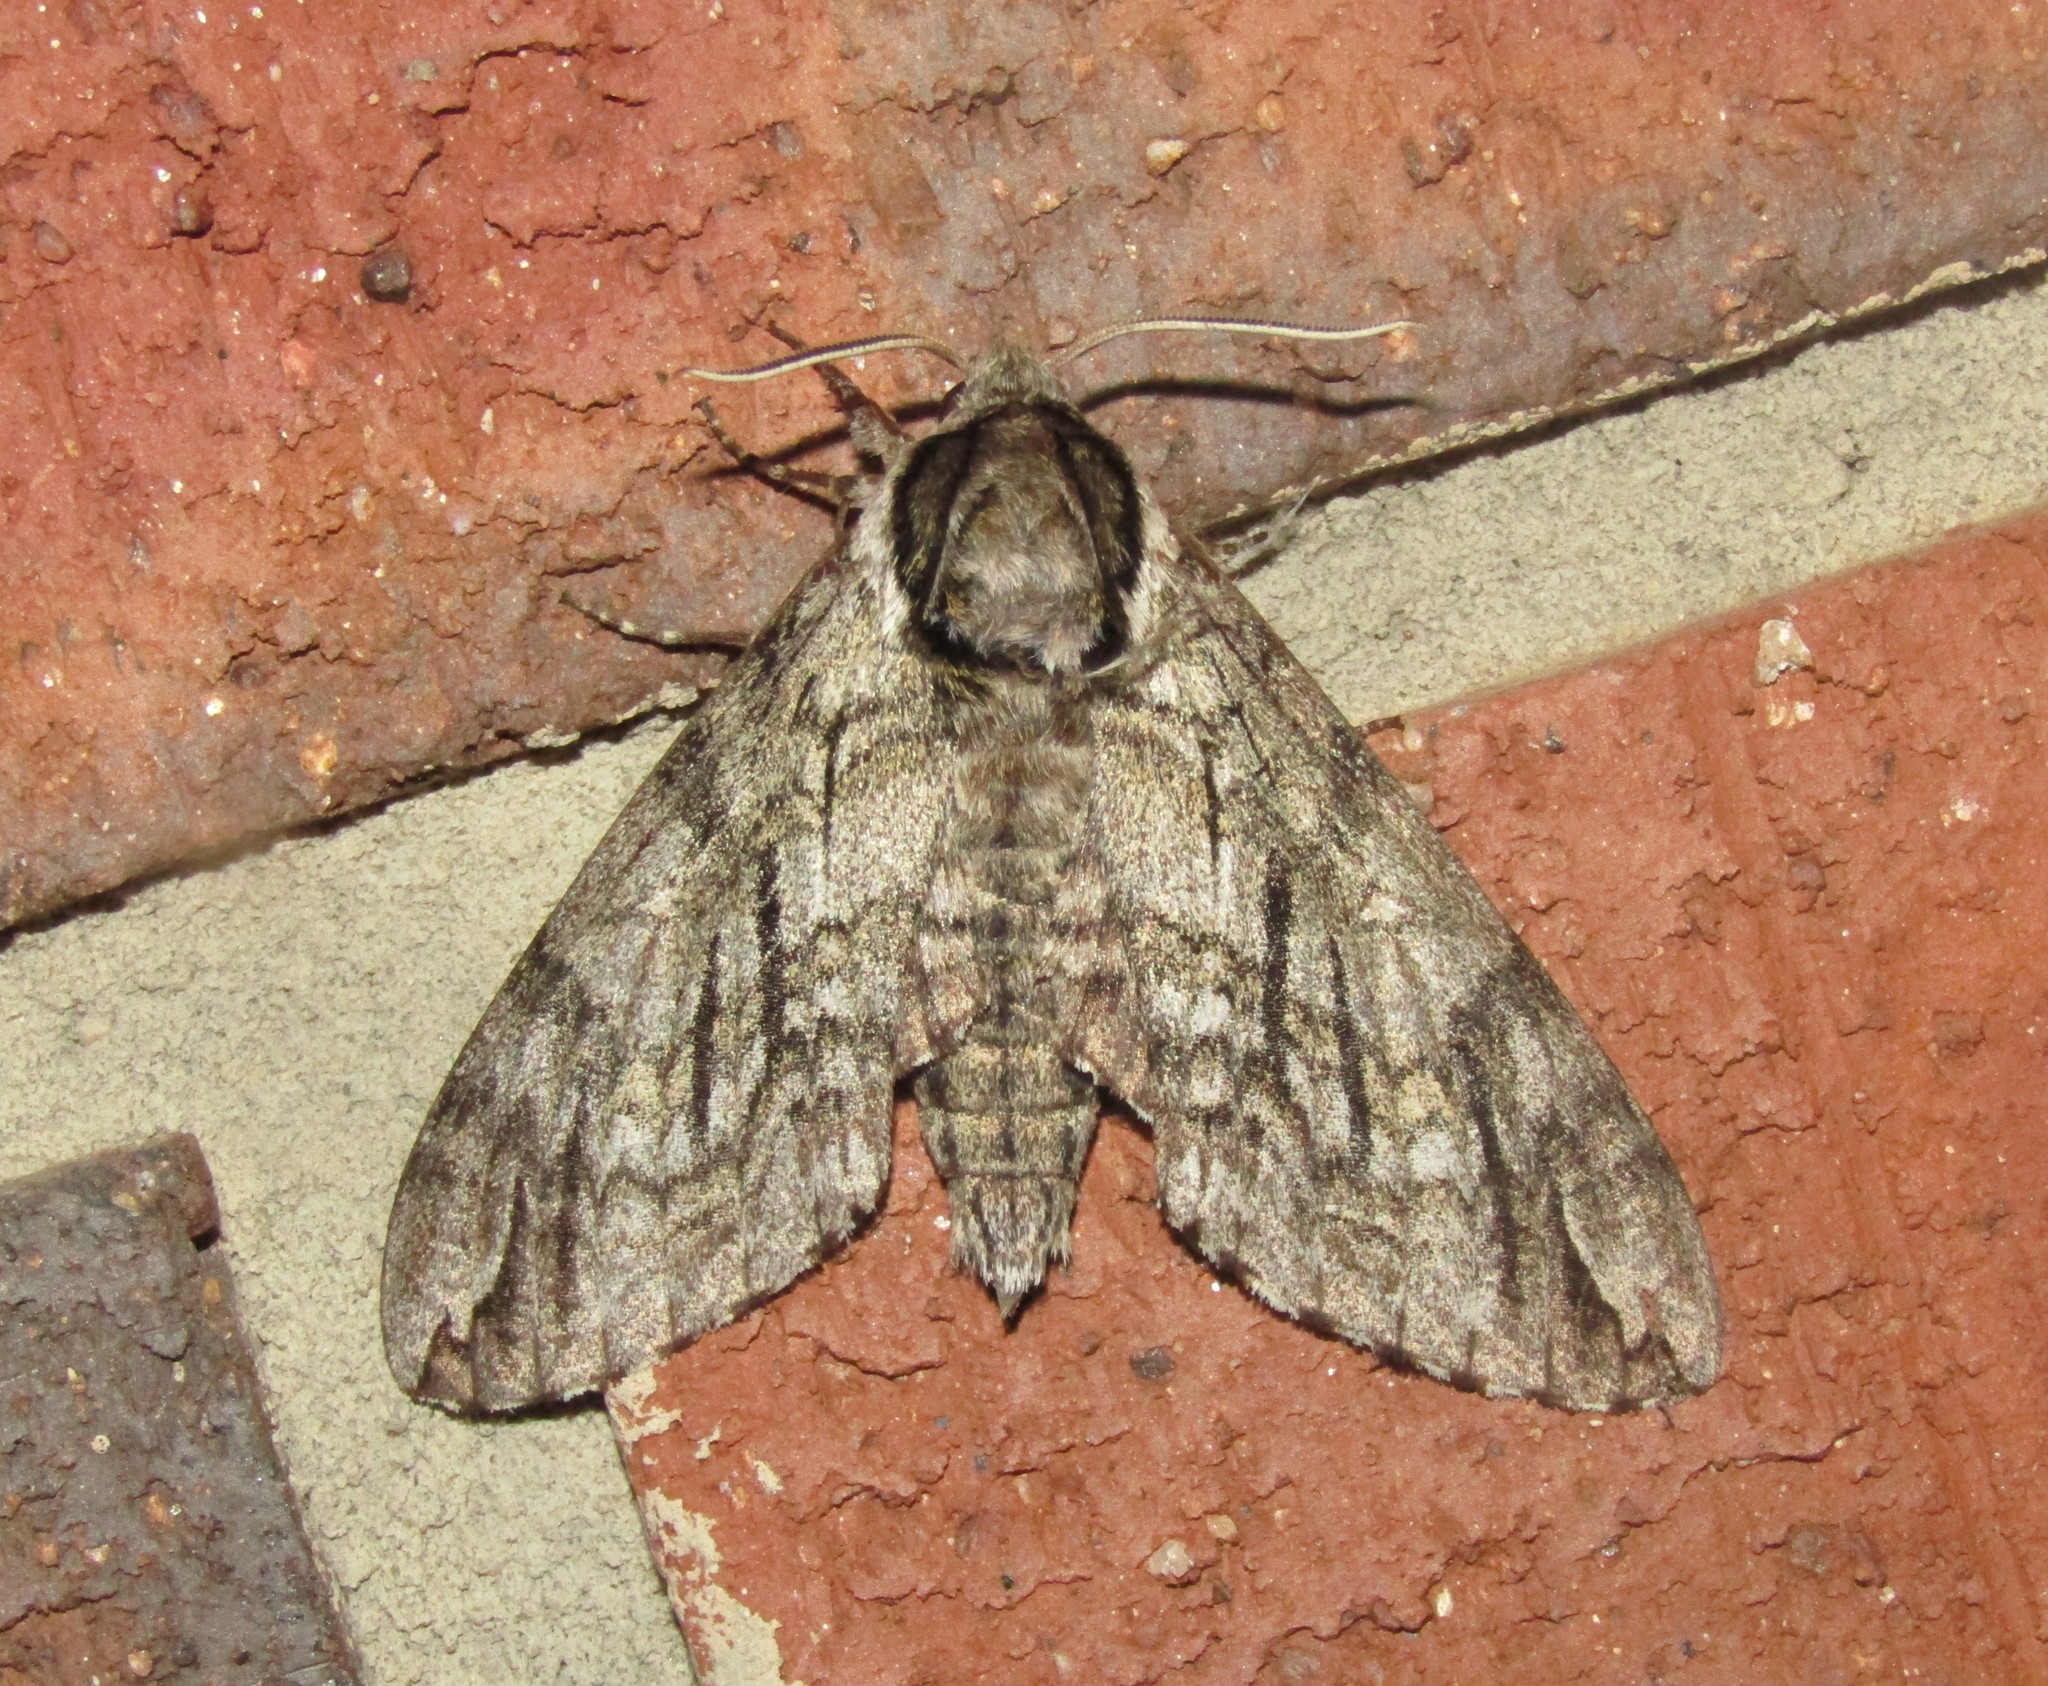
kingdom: Animalia
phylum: Arthropoda
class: Insecta
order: Lepidoptera
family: Sphingidae
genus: Ceratomia
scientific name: Ceratomia undulosa
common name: Waved sphinx
